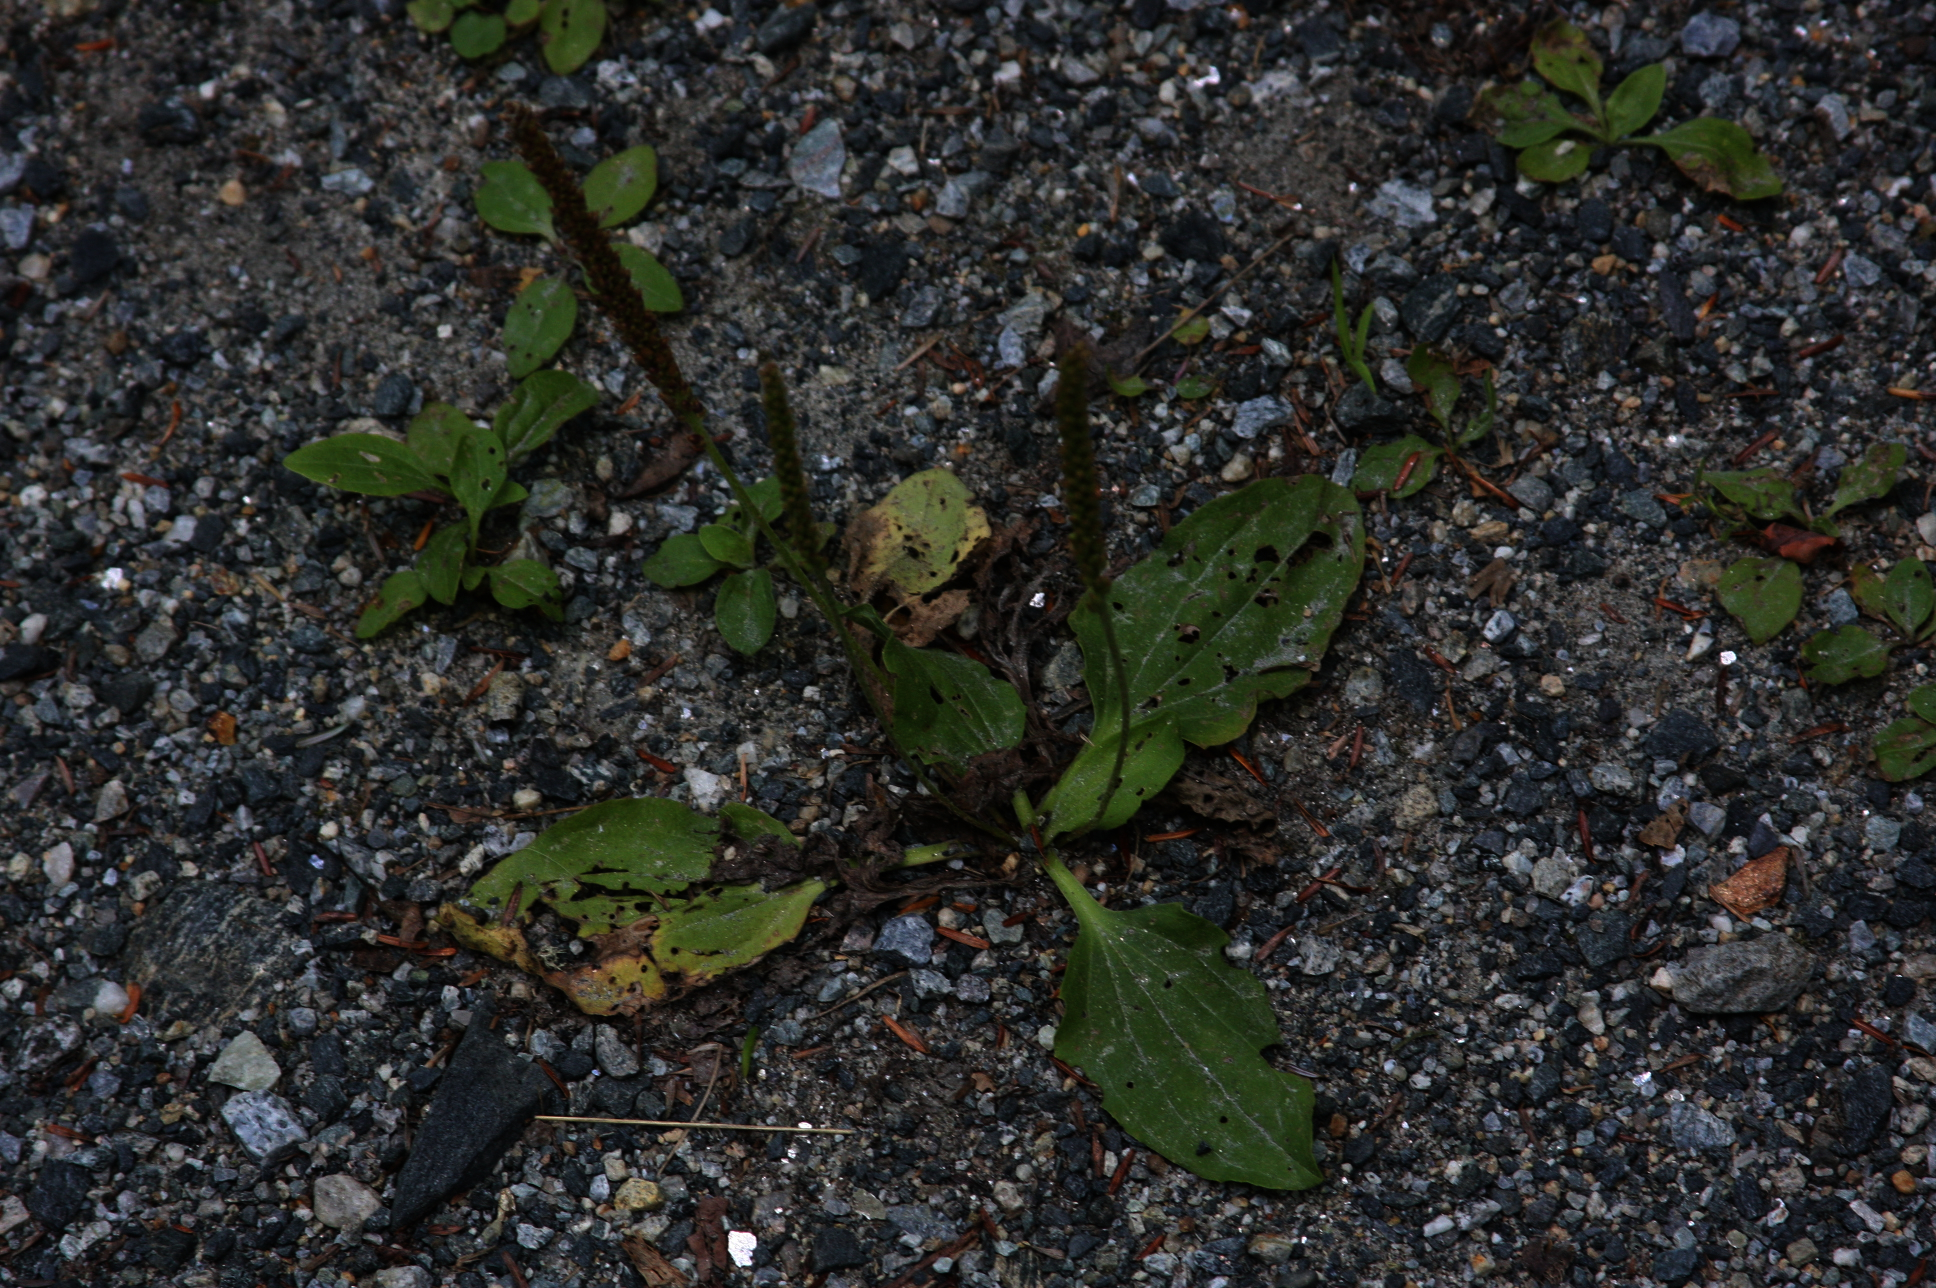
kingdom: Plantae
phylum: Tracheophyta
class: Magnoliopsida
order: Lamiales
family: Plantaginaceae
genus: Plantago
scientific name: Plantago major
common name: Common plantain
